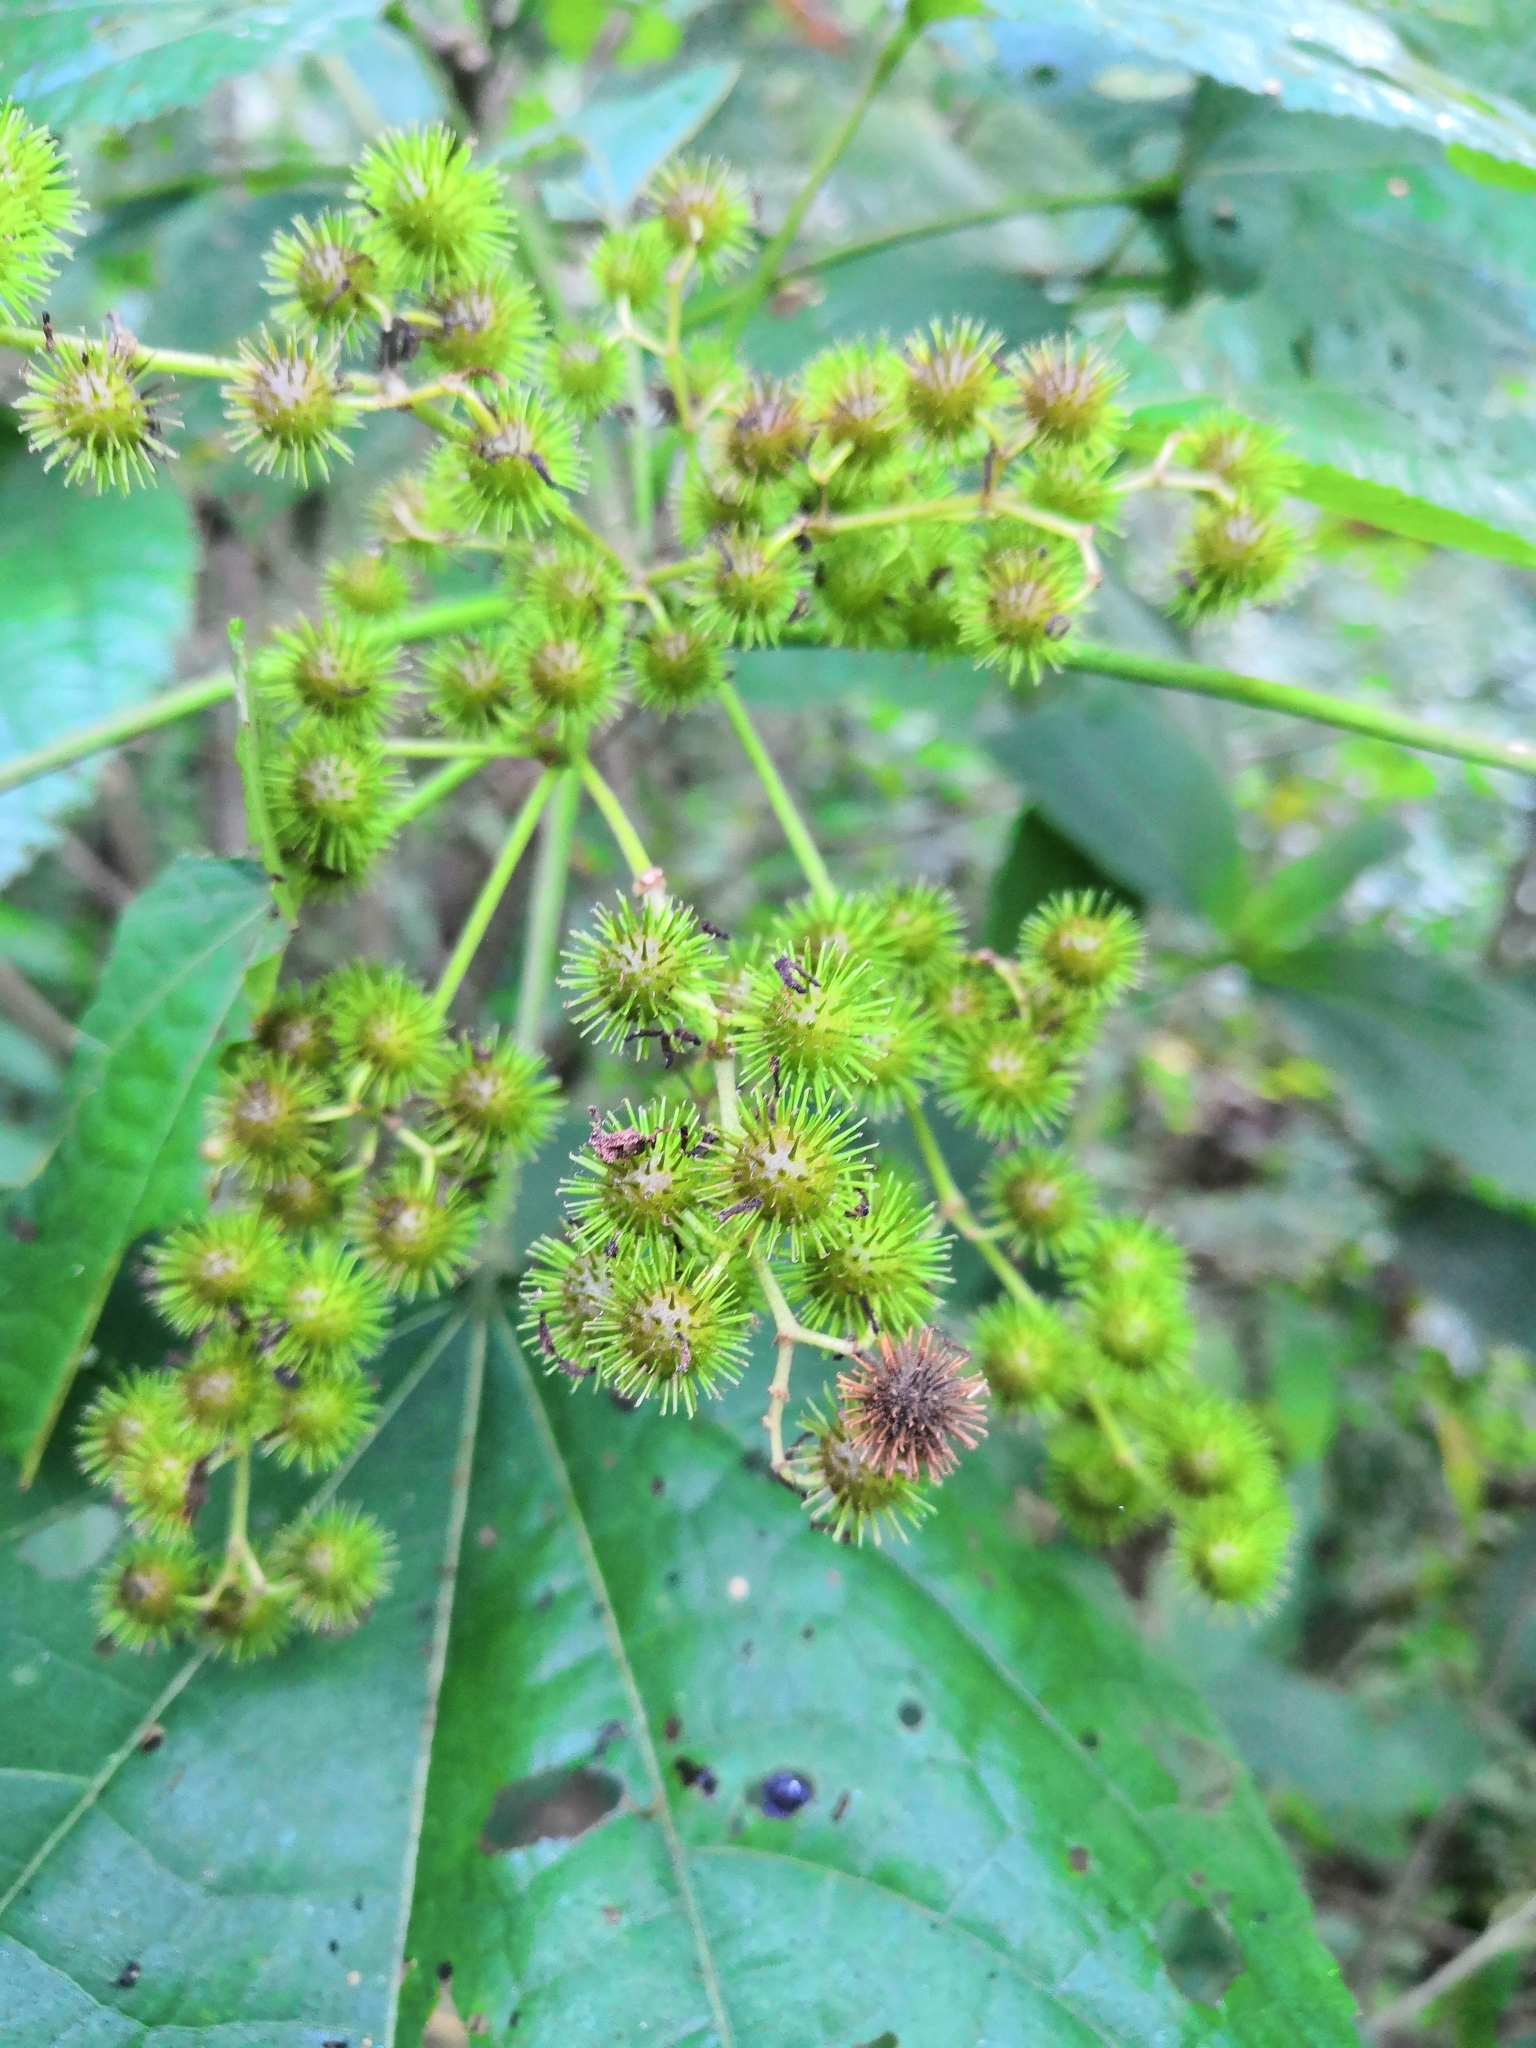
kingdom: Plantae
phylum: Tracheophyta
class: Magnoliopsida
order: Malvales
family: Malvaceae
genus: Triumfetta
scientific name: Triumfetta paniculata
